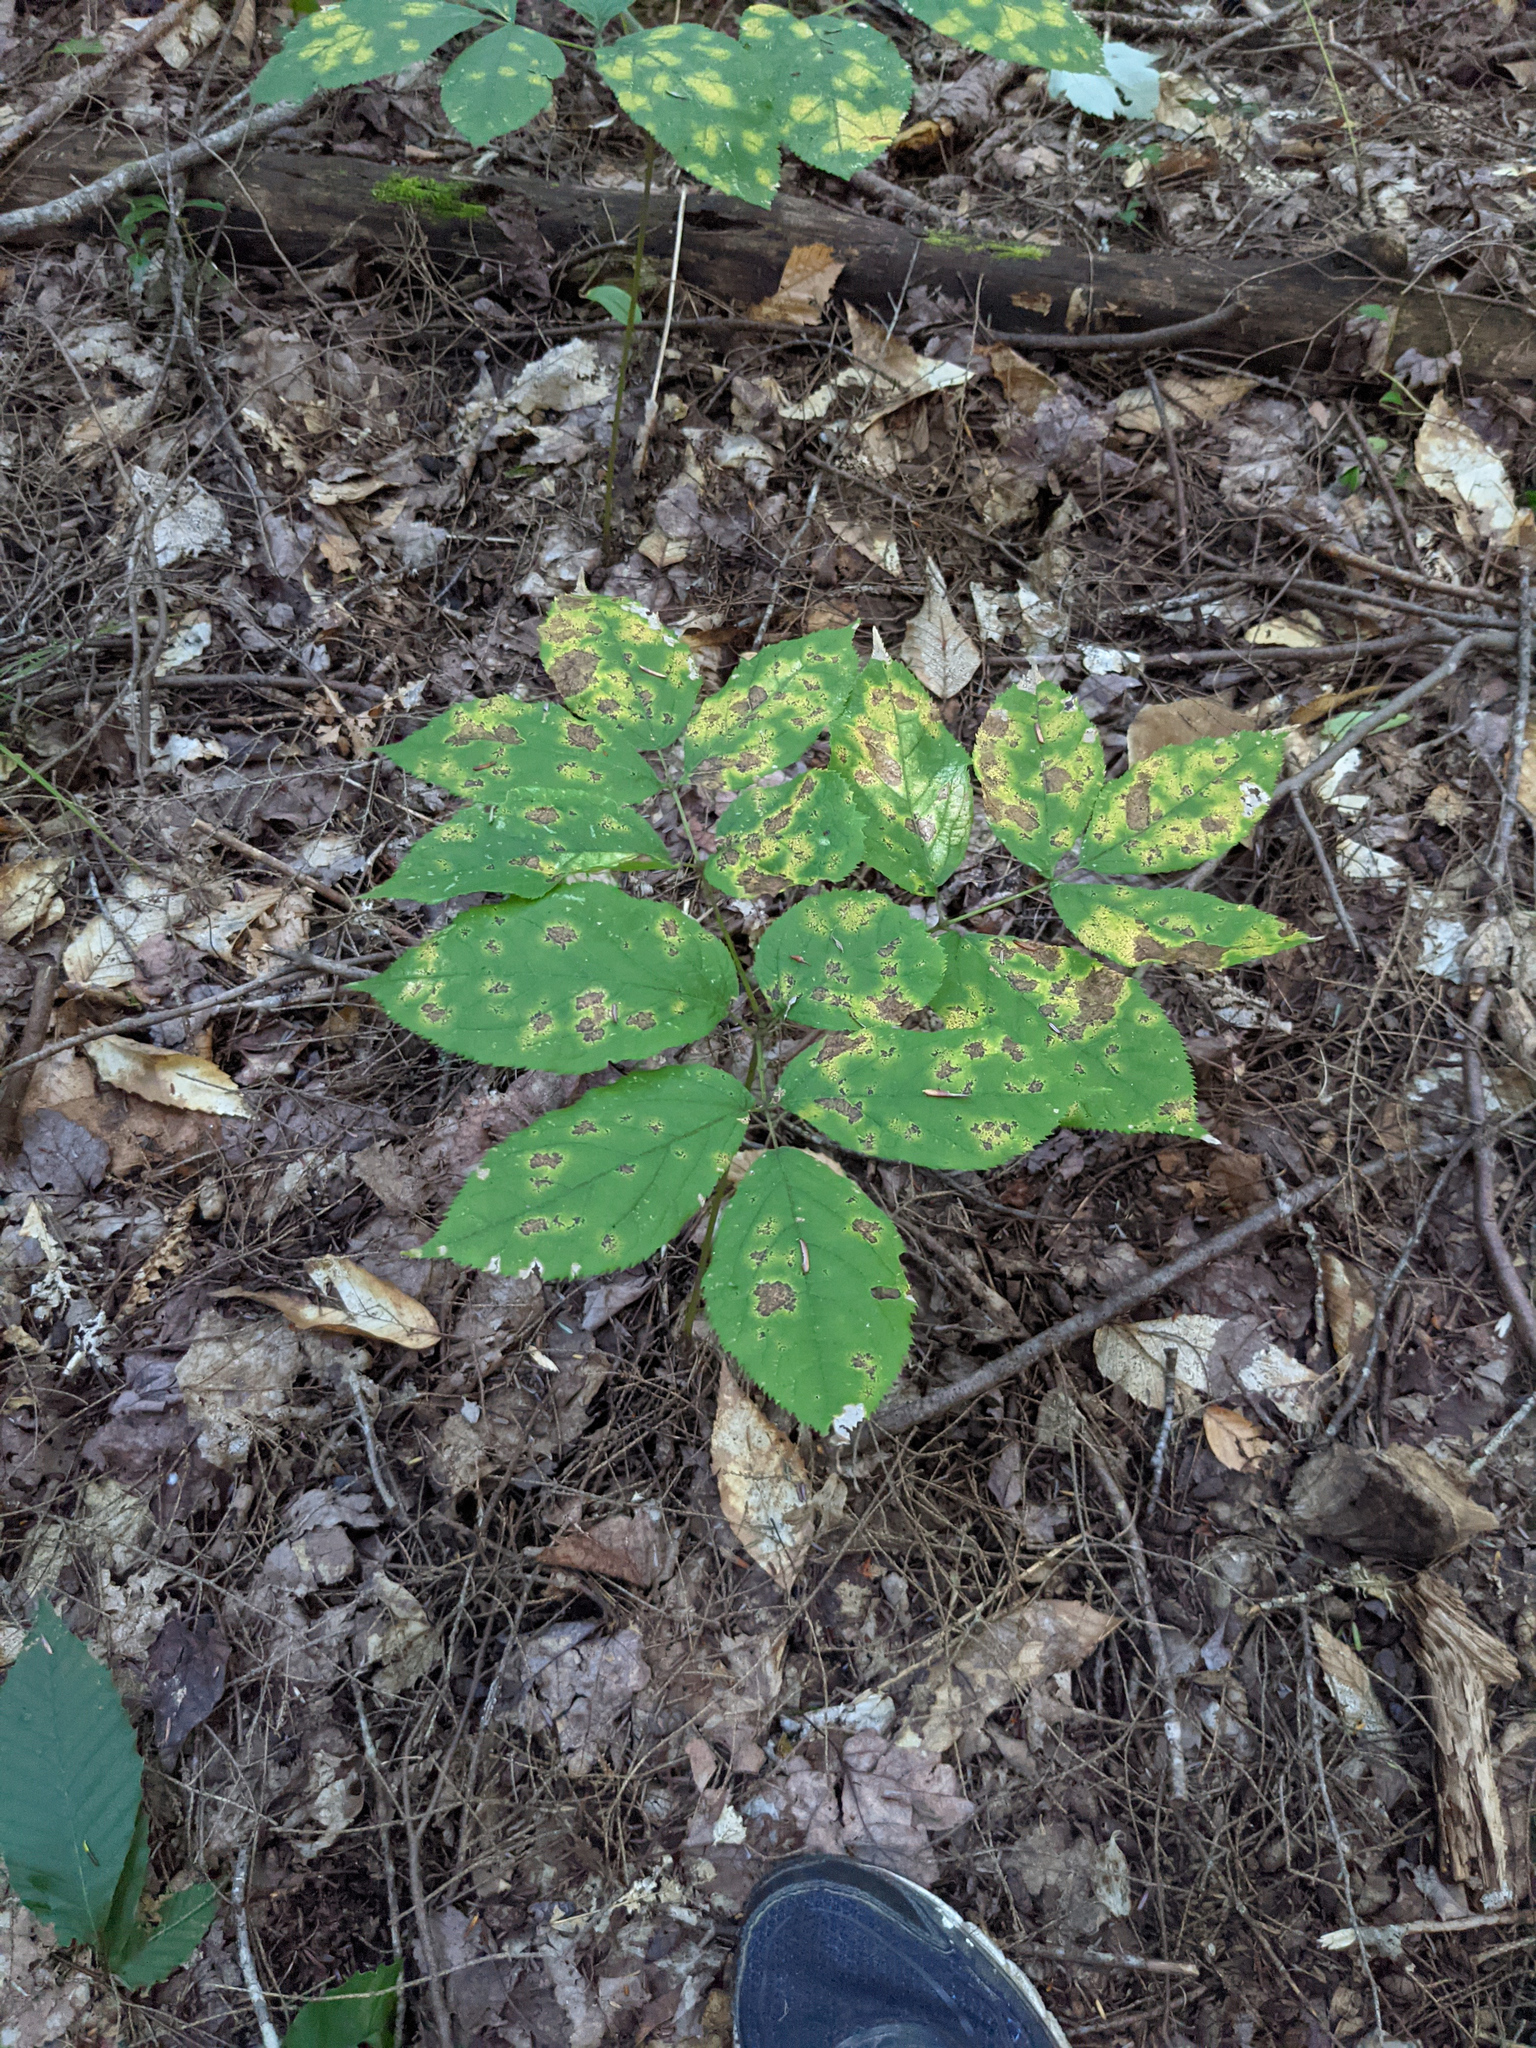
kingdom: Plantae
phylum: Tracheophyta
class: Magnoliopsida
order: Apiales
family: Araliaceae
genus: Aralia
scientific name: Aralia nudicaulis
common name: Wild sarsaparilla
